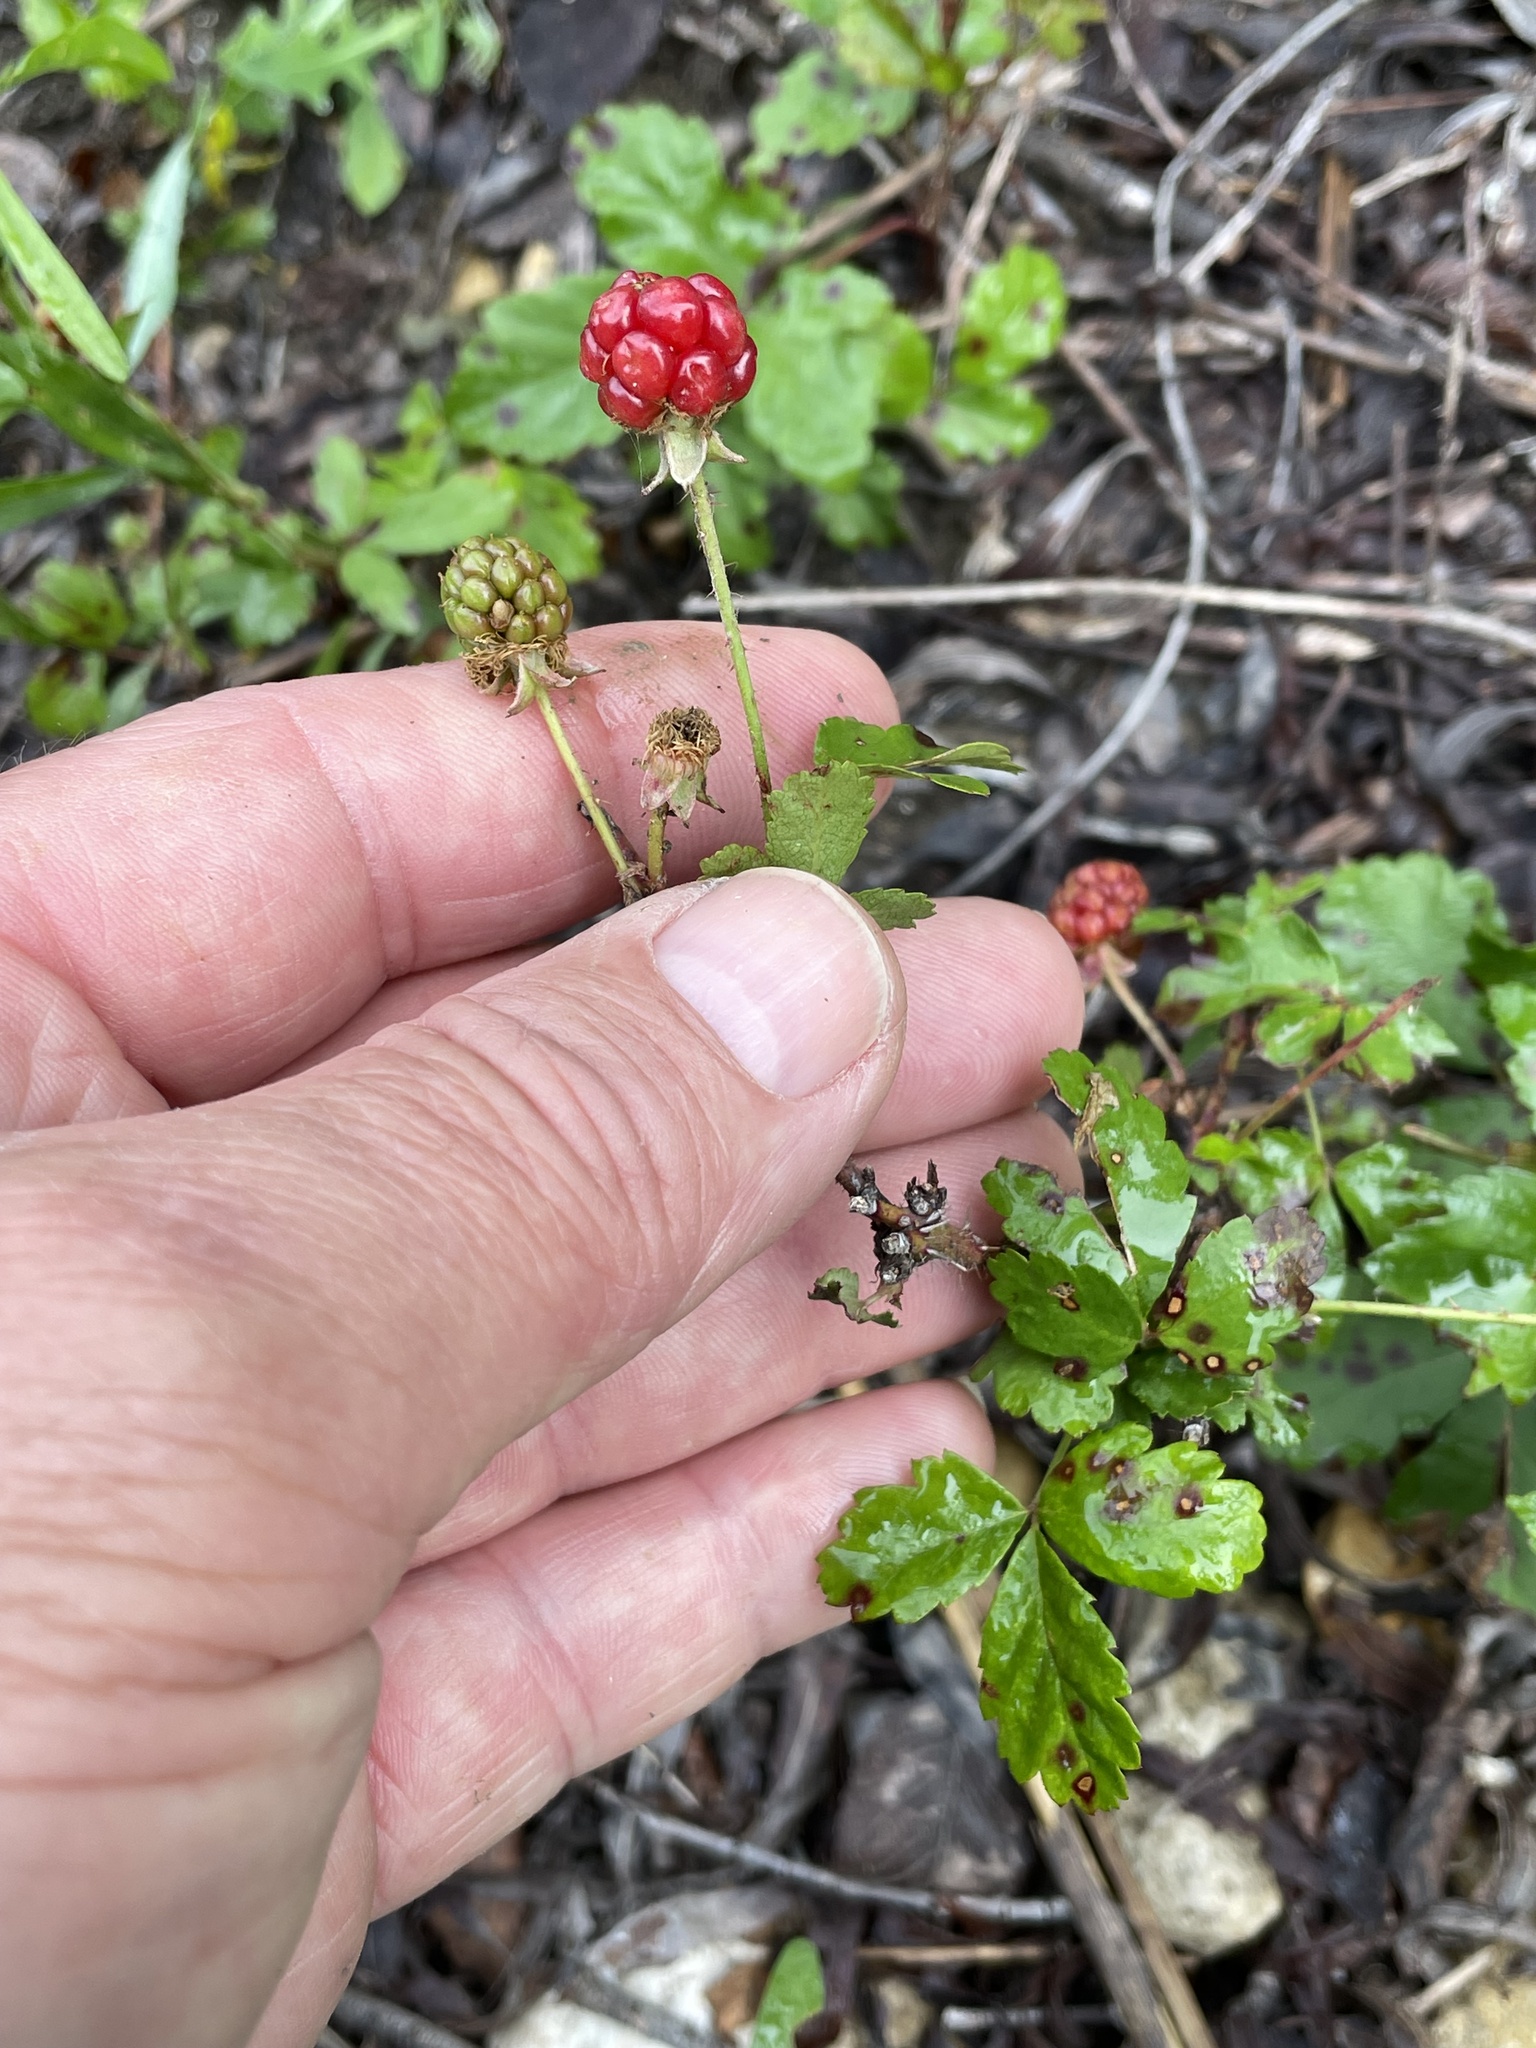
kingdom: Plantae
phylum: Tracheophyta
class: Magnoliopsida
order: Rosales
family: Rosaceae
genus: Rubus
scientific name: Rubus trivialis
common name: Southern dewberry
